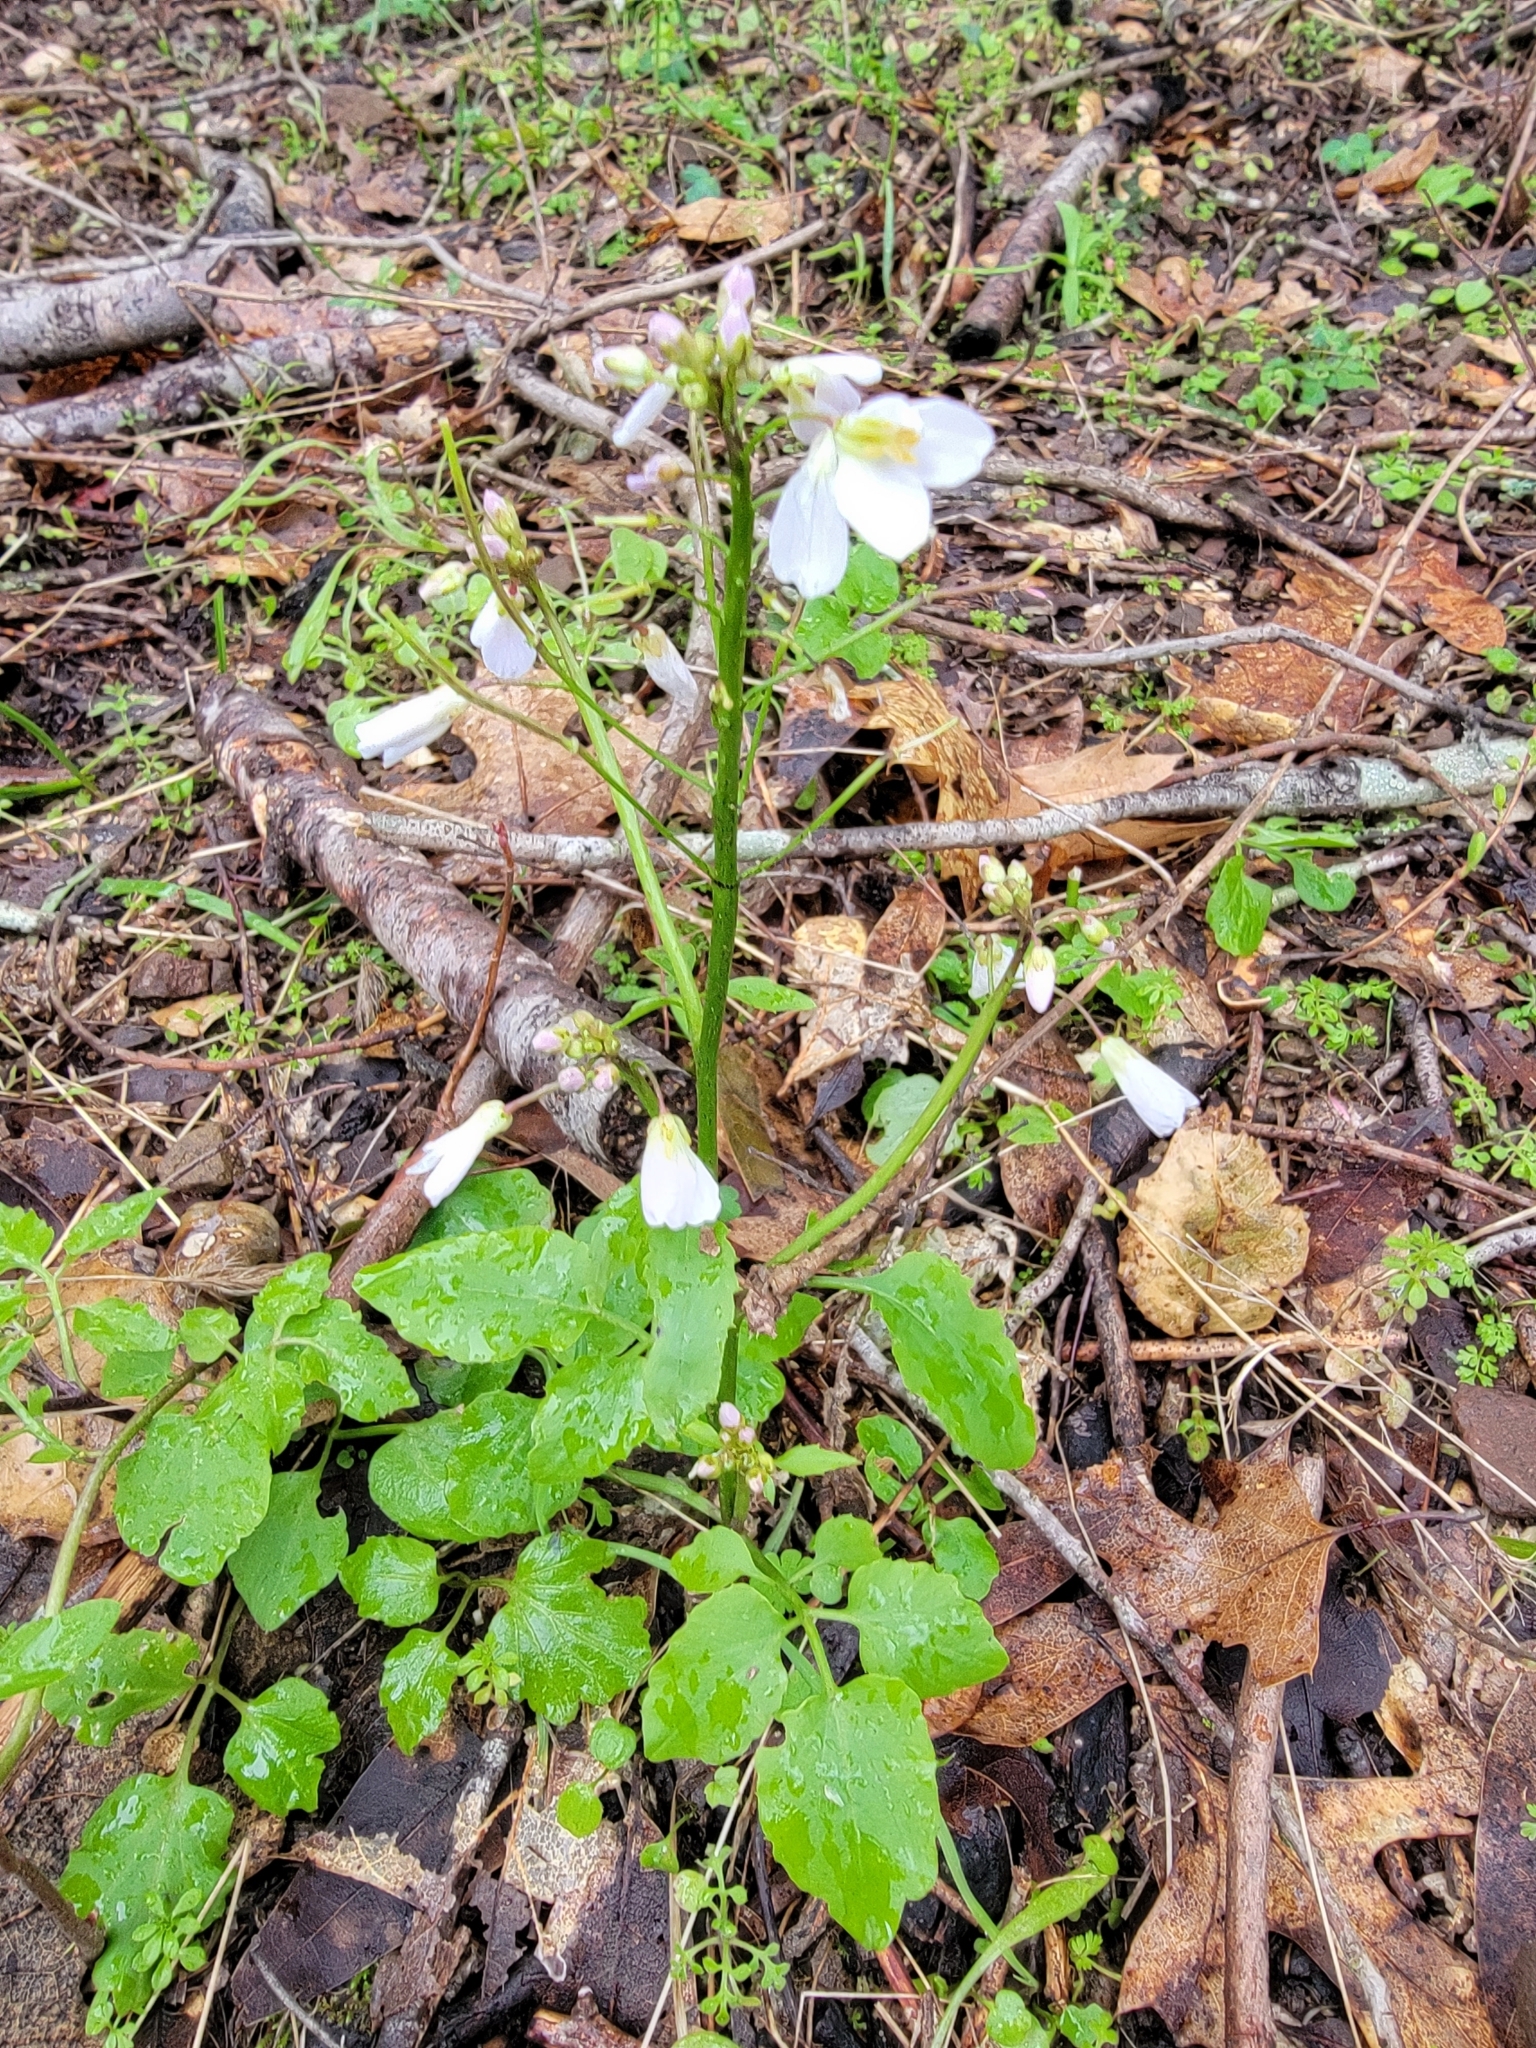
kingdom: Plantae
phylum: Tracheophyta
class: Magnoliopsida
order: Brassicales
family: Brassicaceae
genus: Cardamine
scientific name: Cardamine californica
